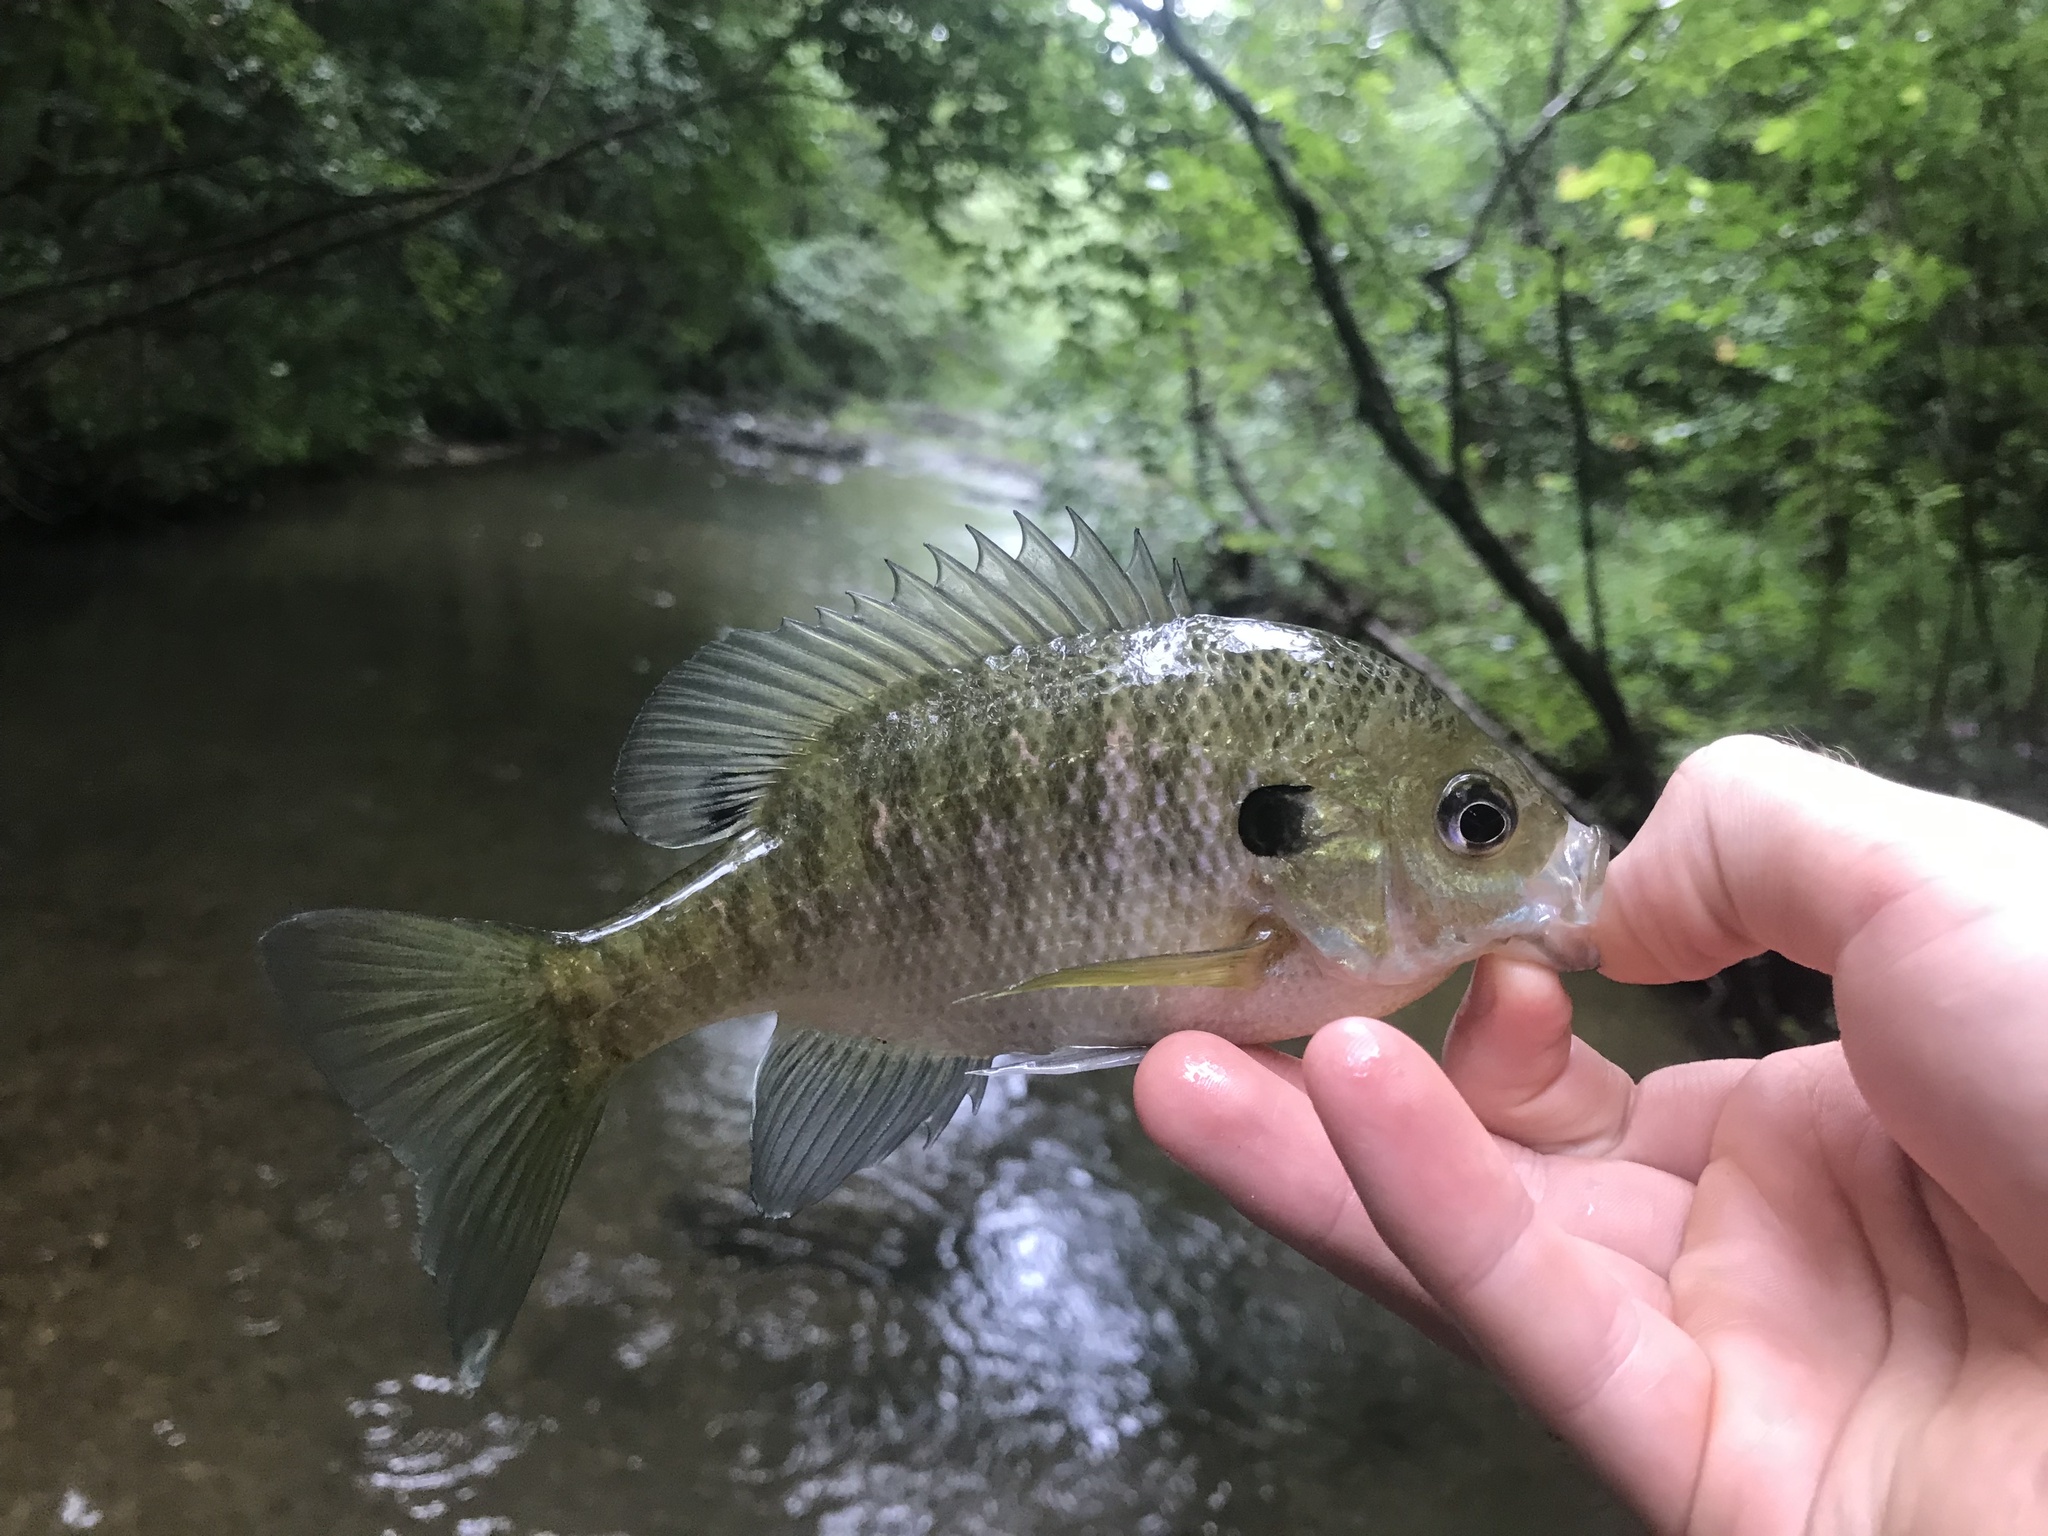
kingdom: Animalia
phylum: Chordata
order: Perciformes
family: Centrarchidae
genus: Lepomis
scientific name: Lepomis macrochirus
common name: Bluegill
